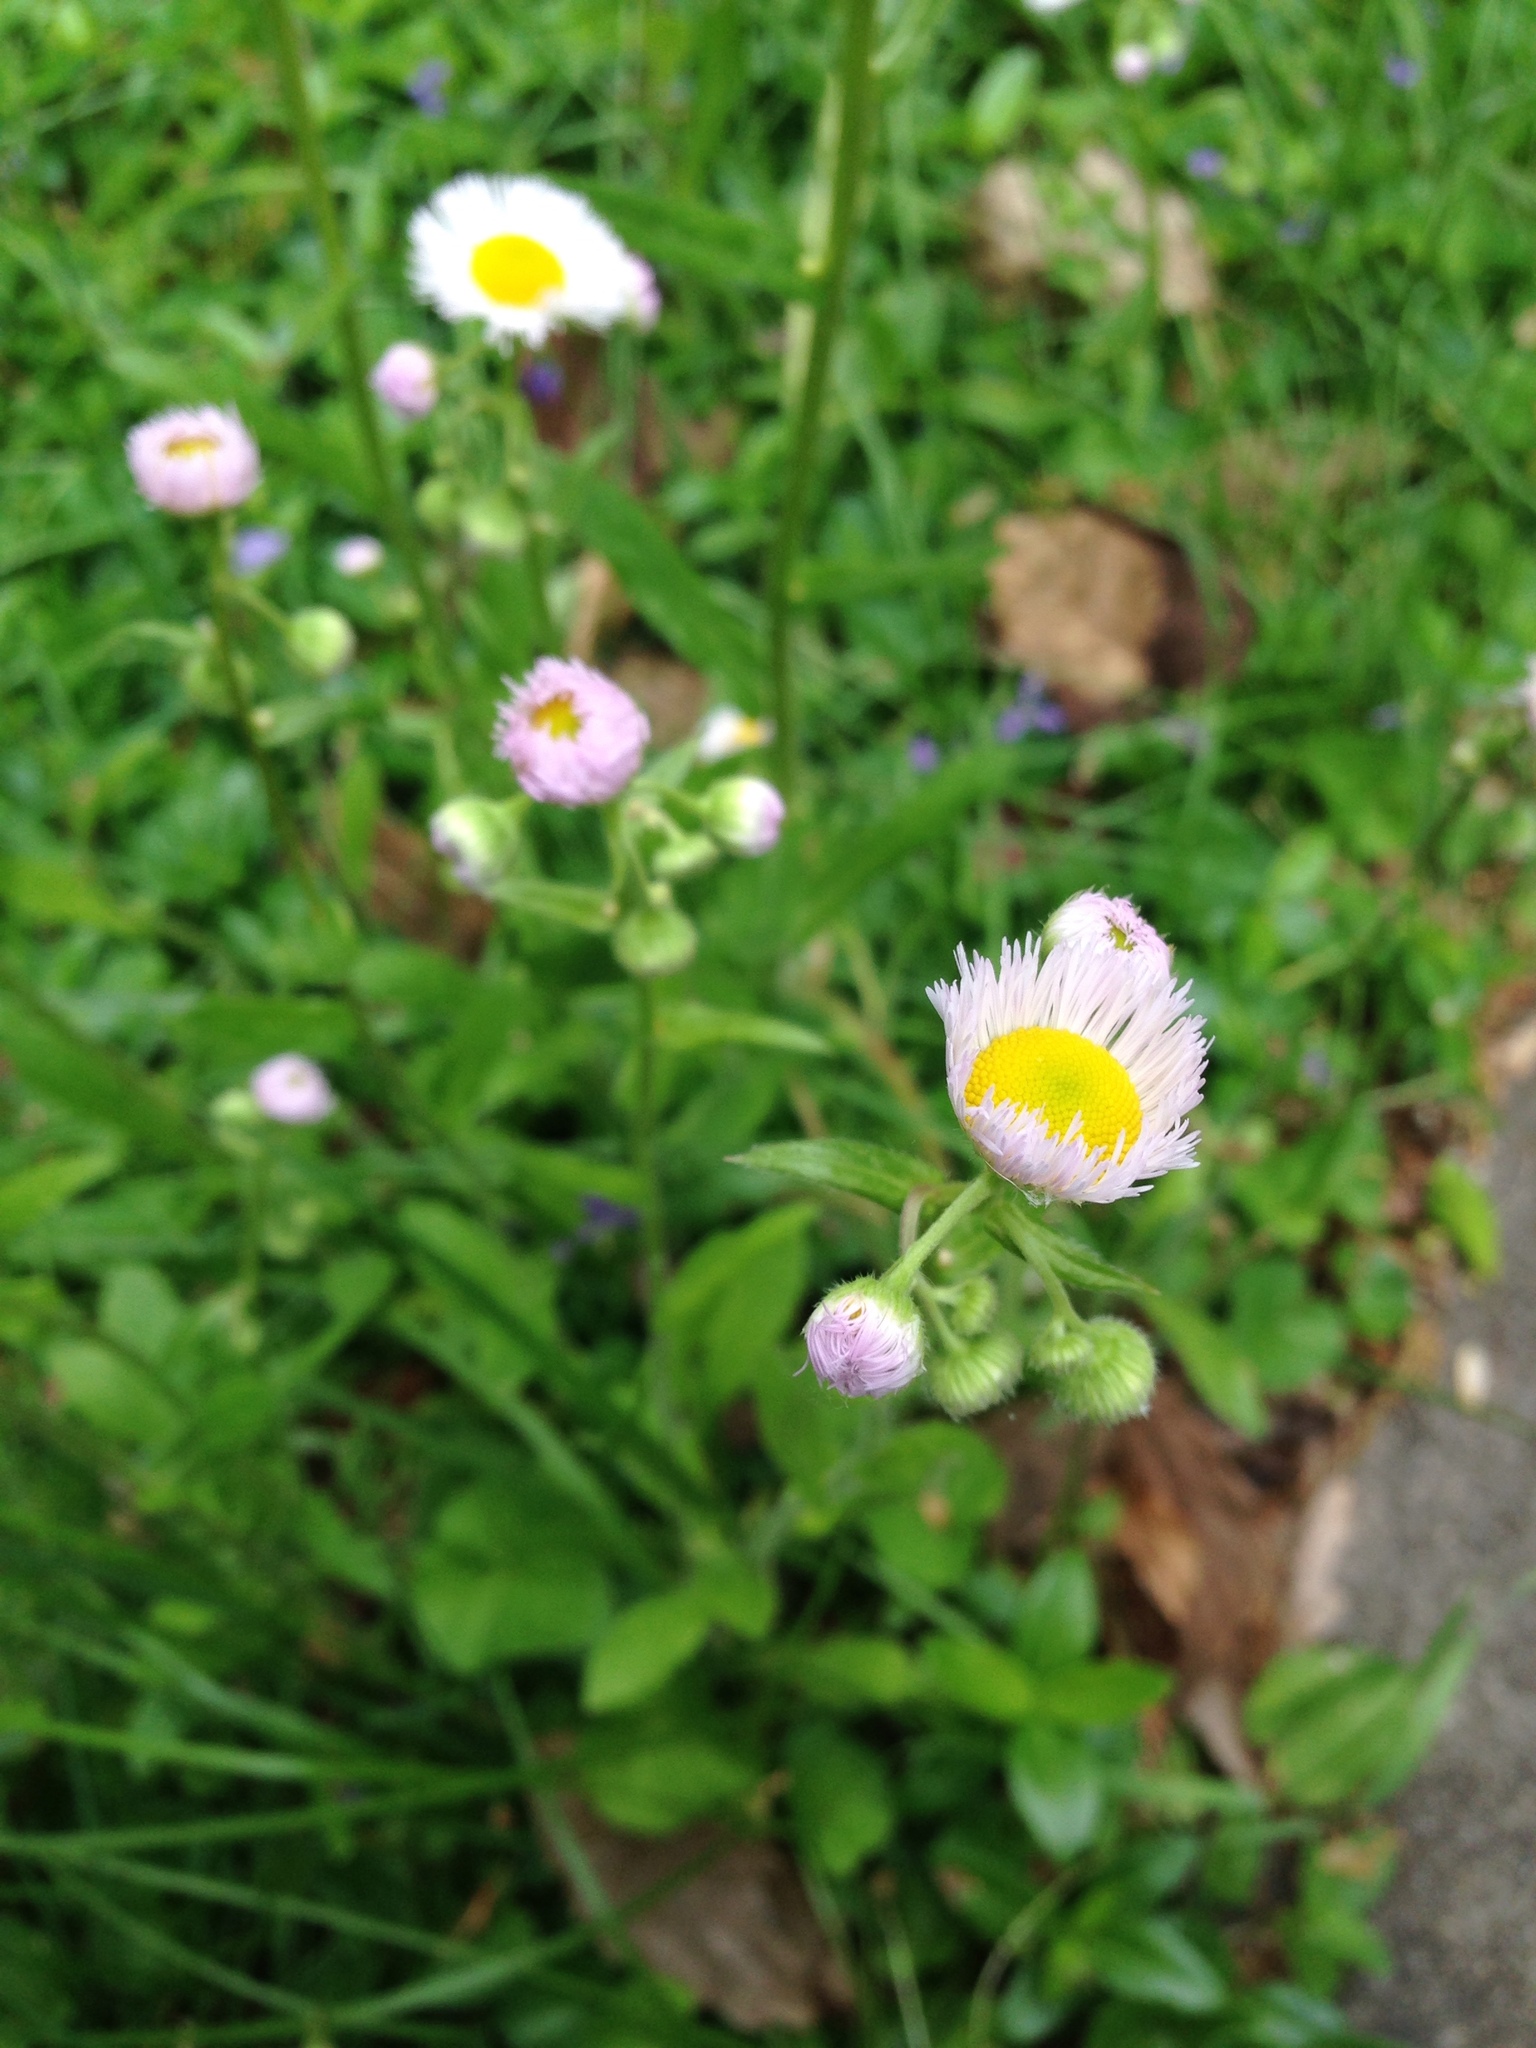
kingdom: Plantae
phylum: Tracheophyta
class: Magnoliopsida
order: Asterales
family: Asteraceae
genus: Erigeron
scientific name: Erigeron philadelphicus
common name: Robin's-plantain
